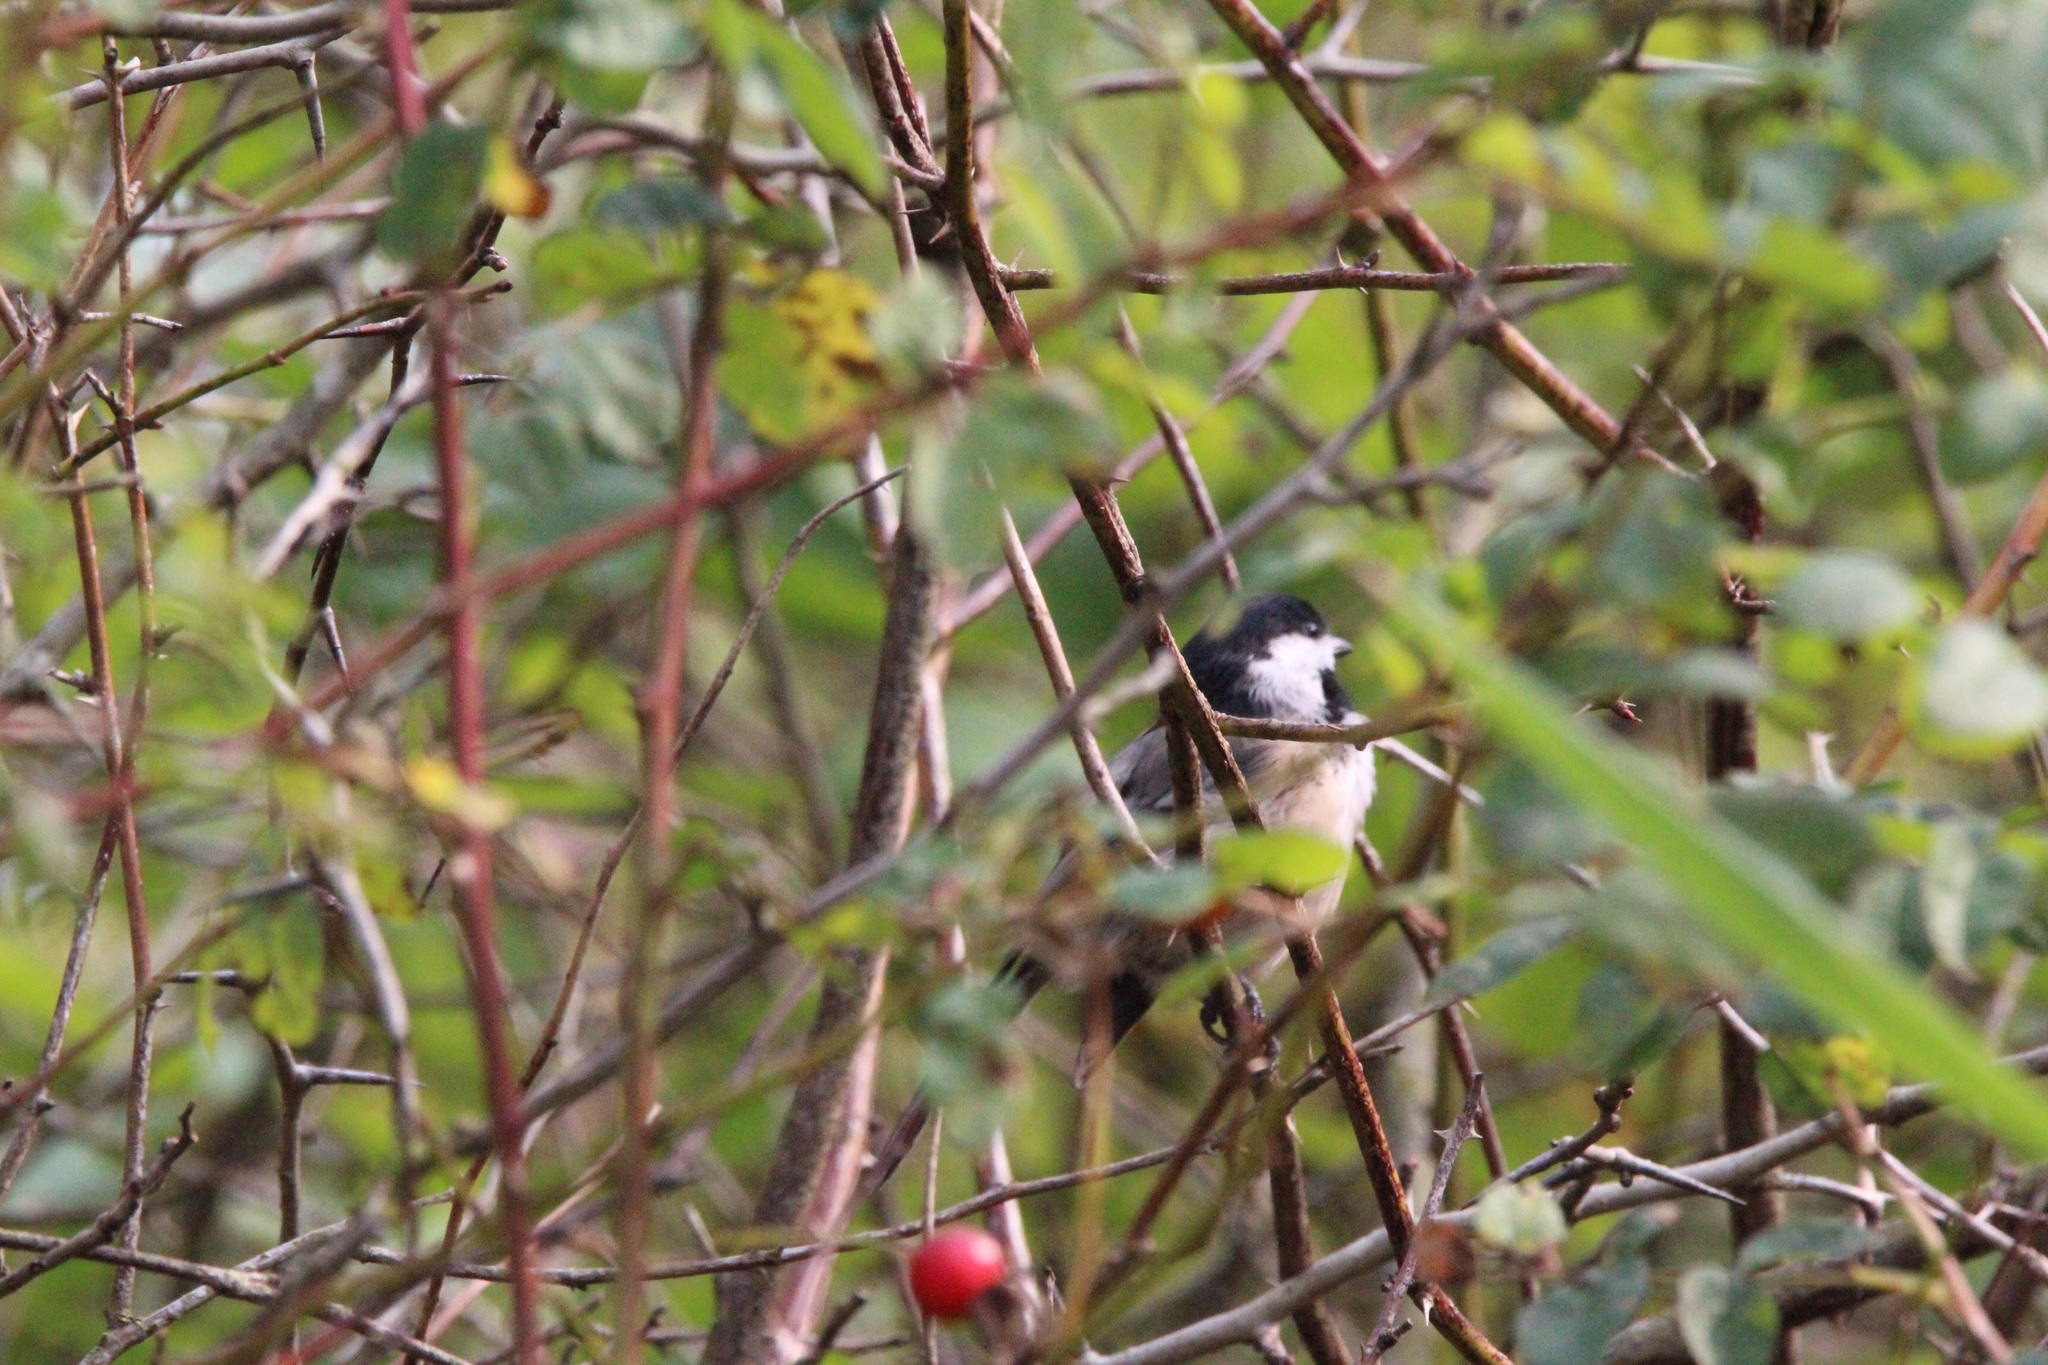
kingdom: Animalia
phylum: Chordata
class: Aves
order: Passeriformes
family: Paridae
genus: Poecile
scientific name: Poecile atricapillus
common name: Black-capped chickadee
